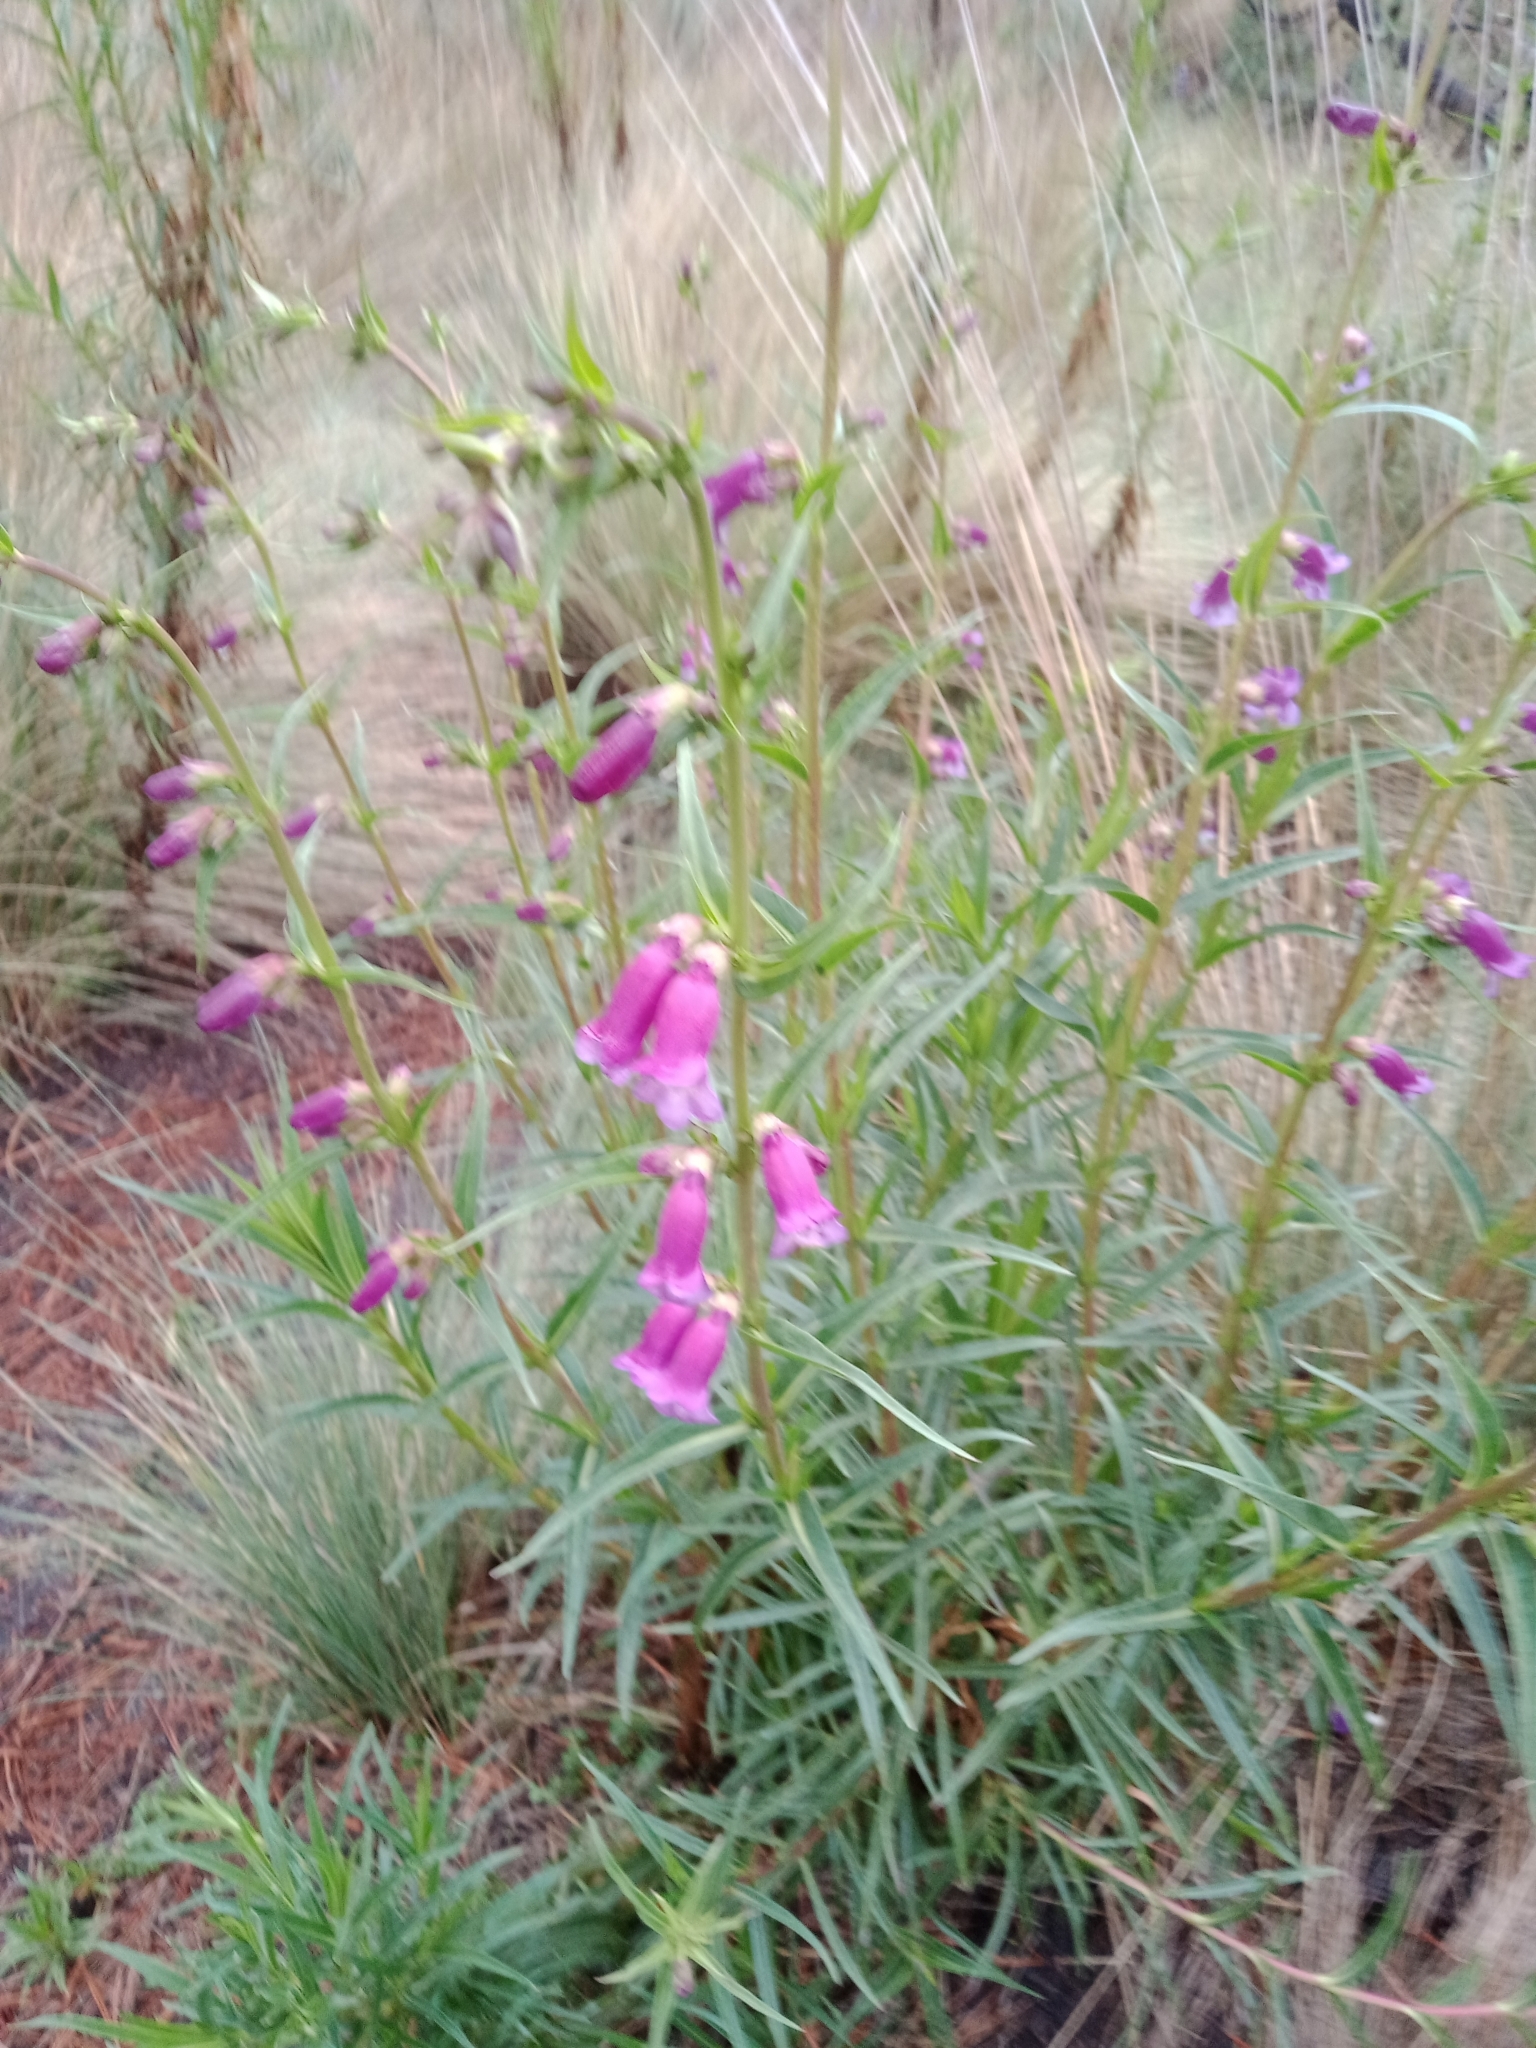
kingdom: Plantae
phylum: Tracheophyta
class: Magnoliopsida
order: Lamiales
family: Plantaginaceae
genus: Penstemon
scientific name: Penstemon gentianoides
